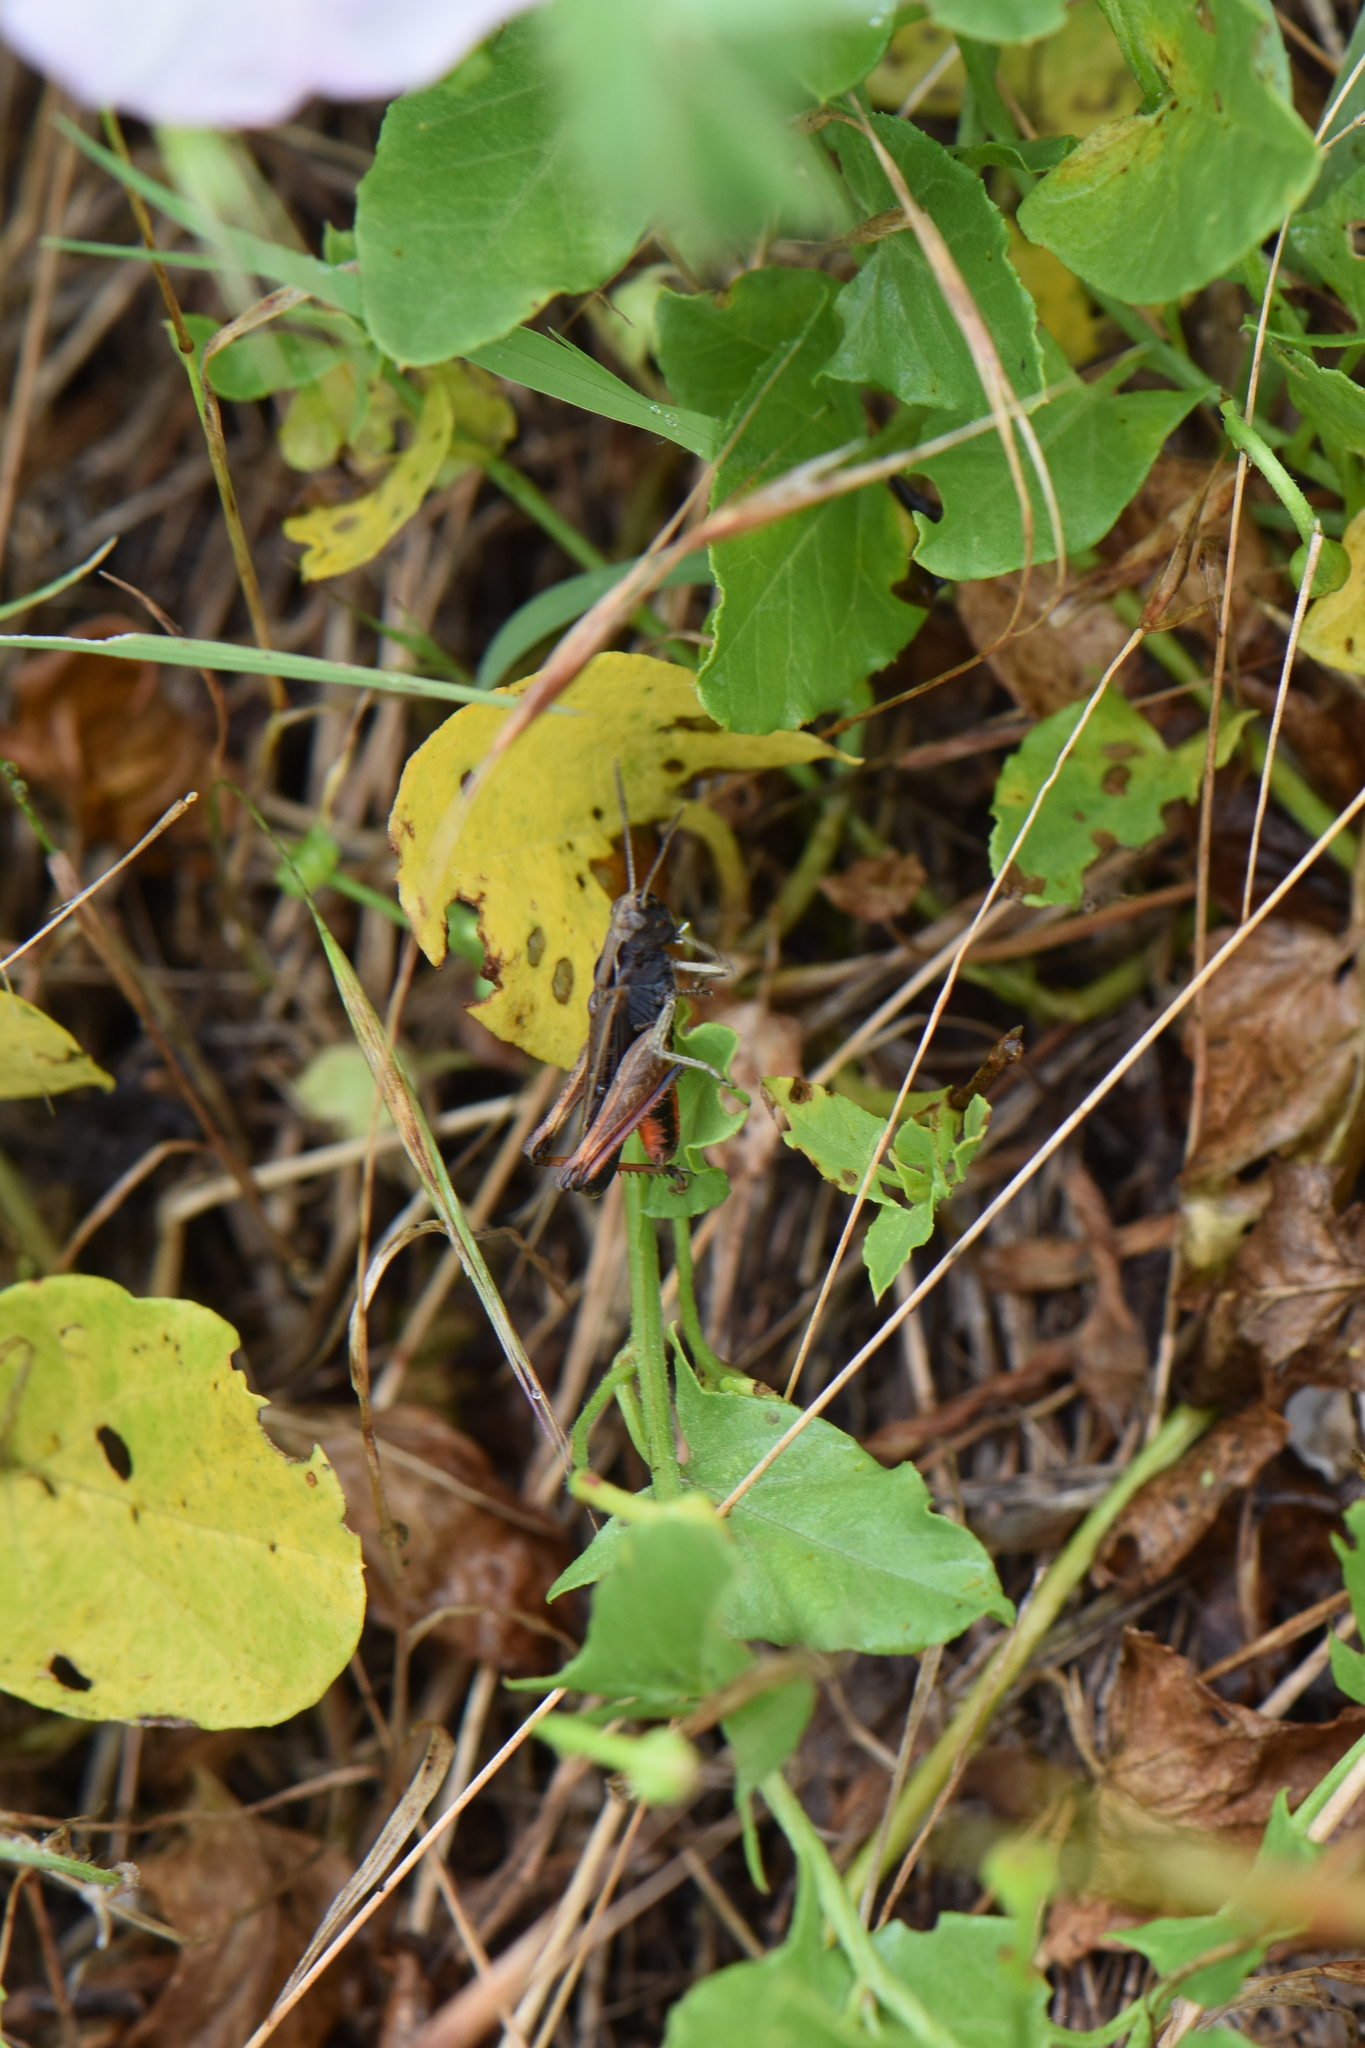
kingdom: Animalia
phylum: Arthropoda
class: Insecta
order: Orthoptera
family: Acrididae
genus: Omocestus
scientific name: Omocestus rufipes
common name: Woodland grasshopper
